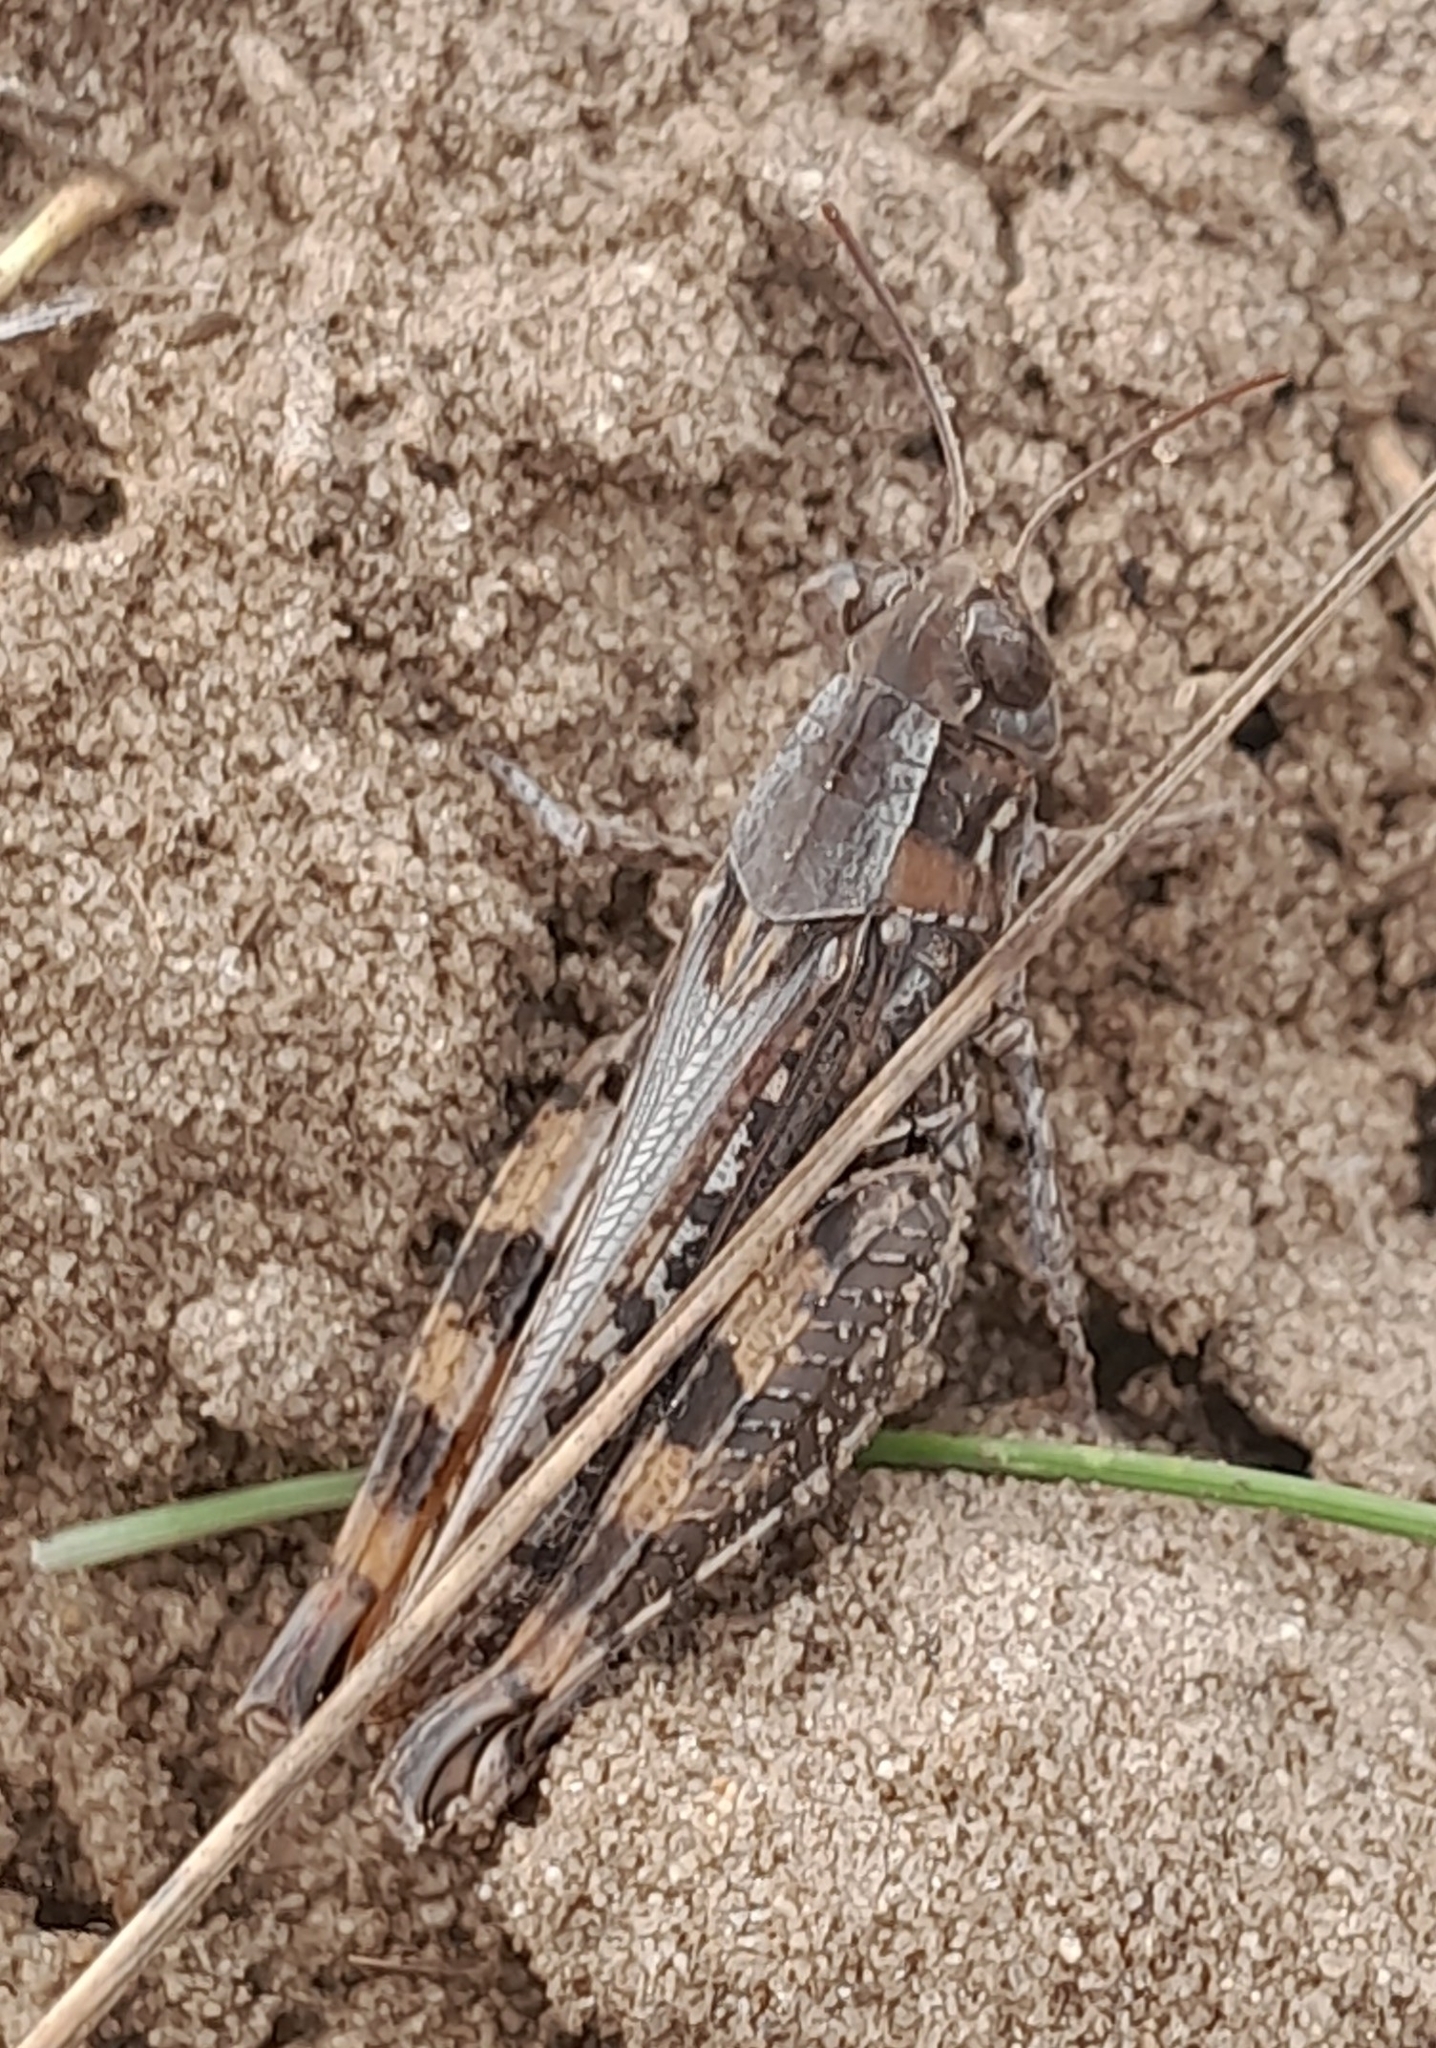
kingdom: Animalia
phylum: Arthropoda
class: Insecta
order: Orthoptera
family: Acrididae
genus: Calliptamus
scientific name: Calliptamus italicus
